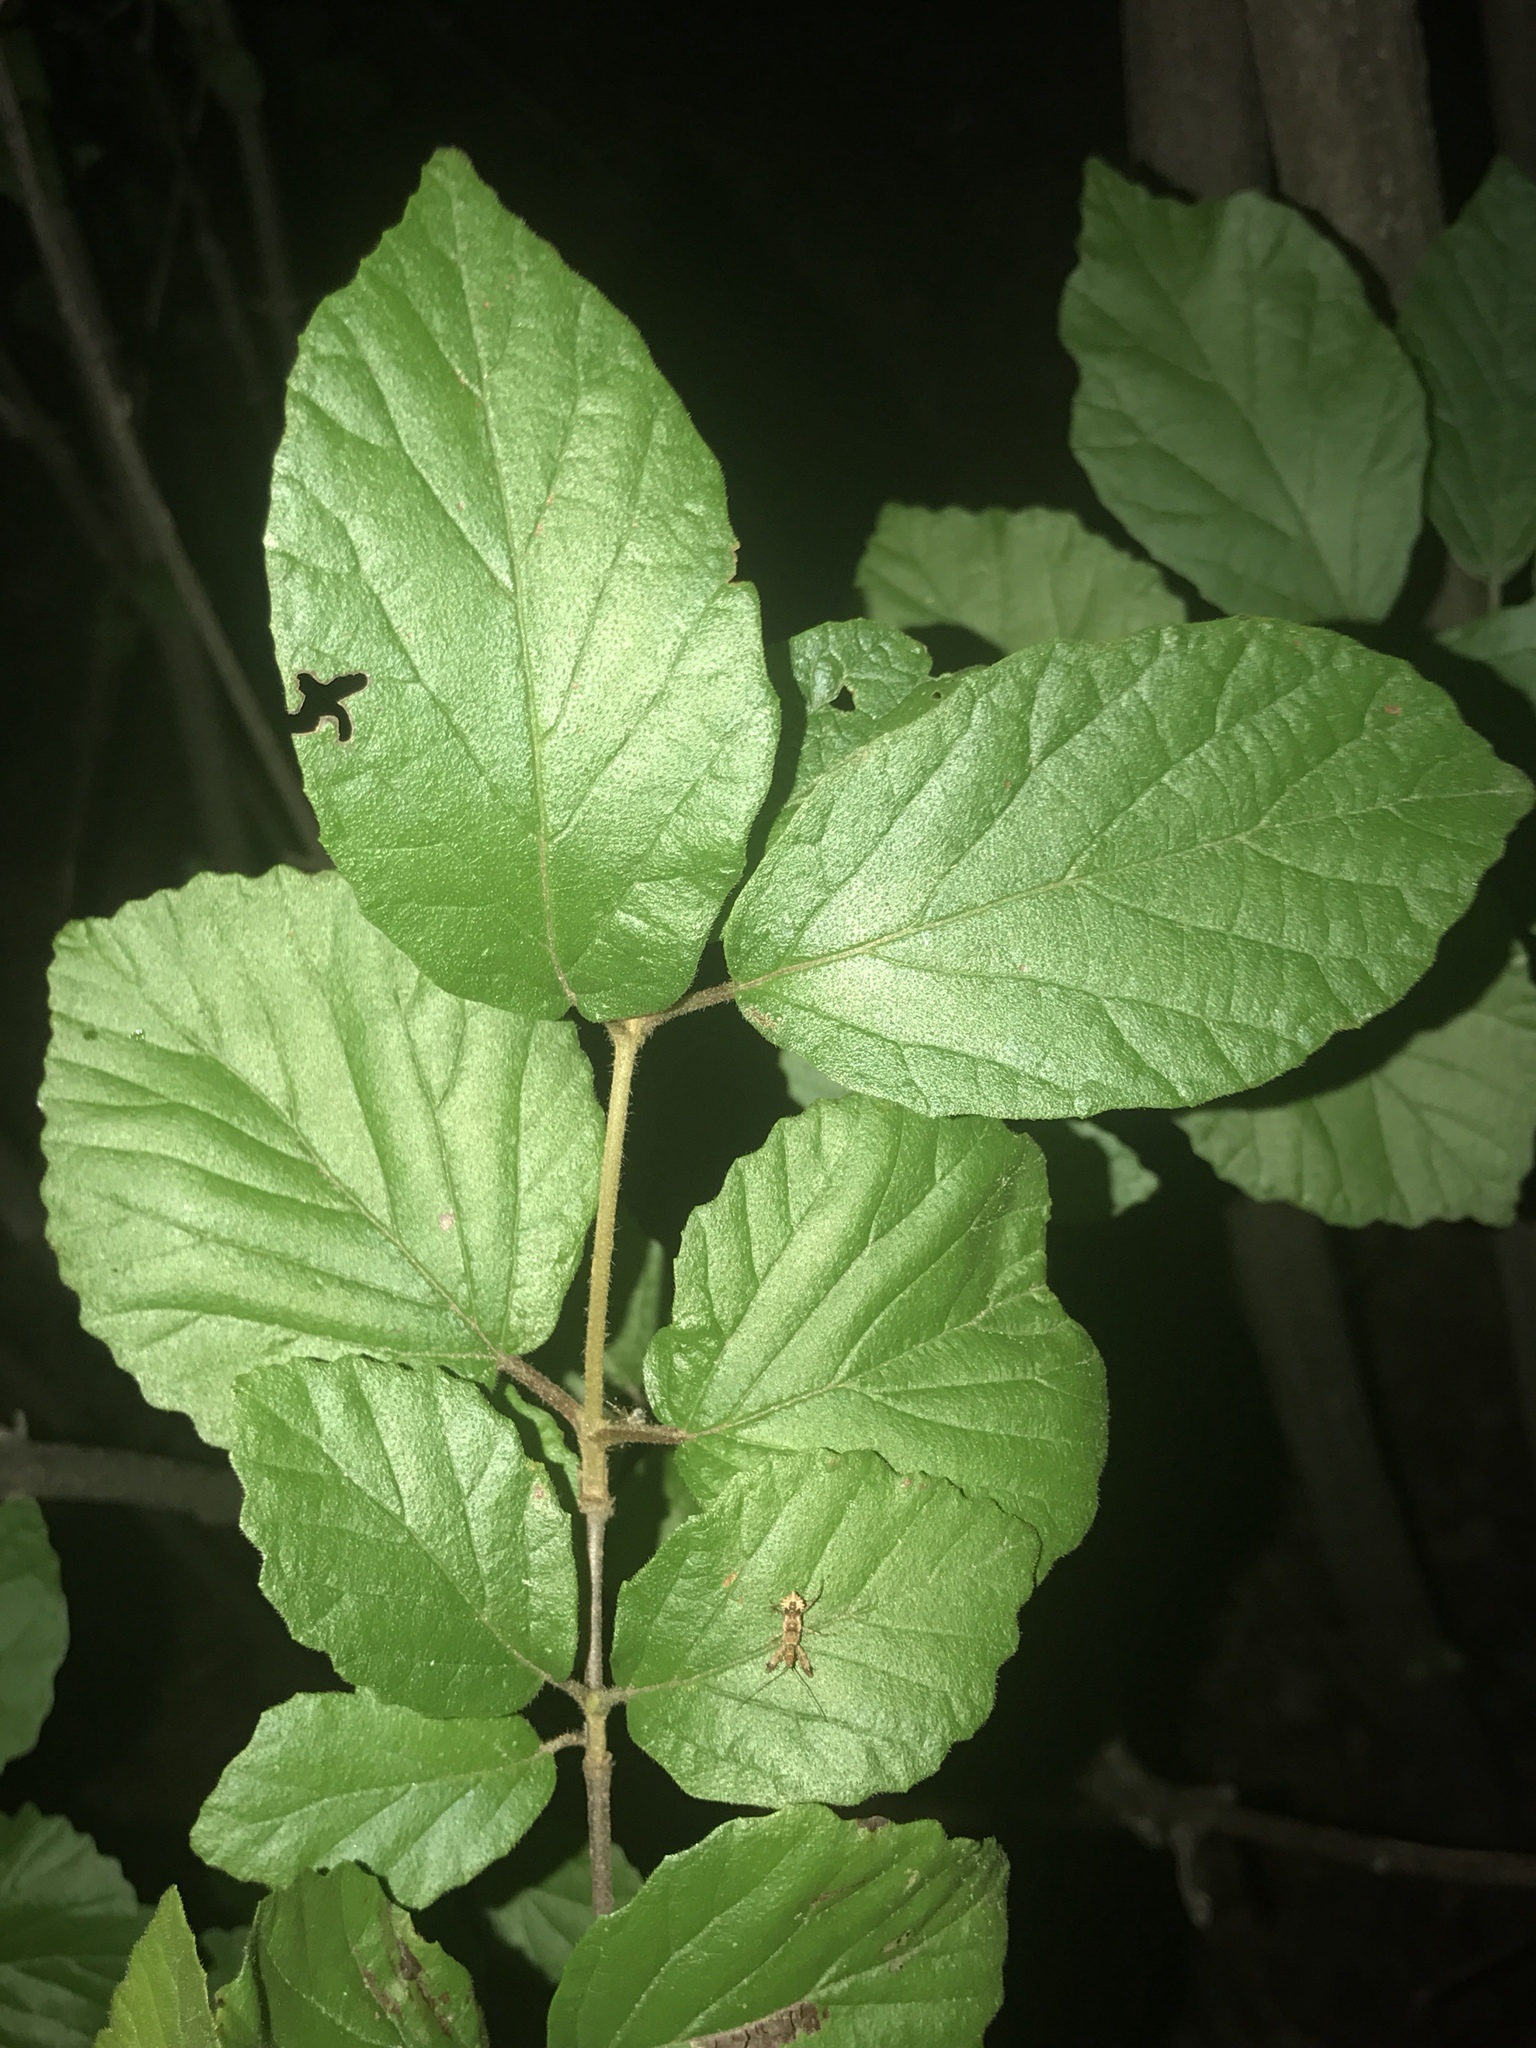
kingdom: Plantae
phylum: Tracheophyta
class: Magnoliopsida
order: Dipsacales
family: Viburnaceae
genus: Viburnum
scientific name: Viburnum dilatatum
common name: Linden arrowwood
